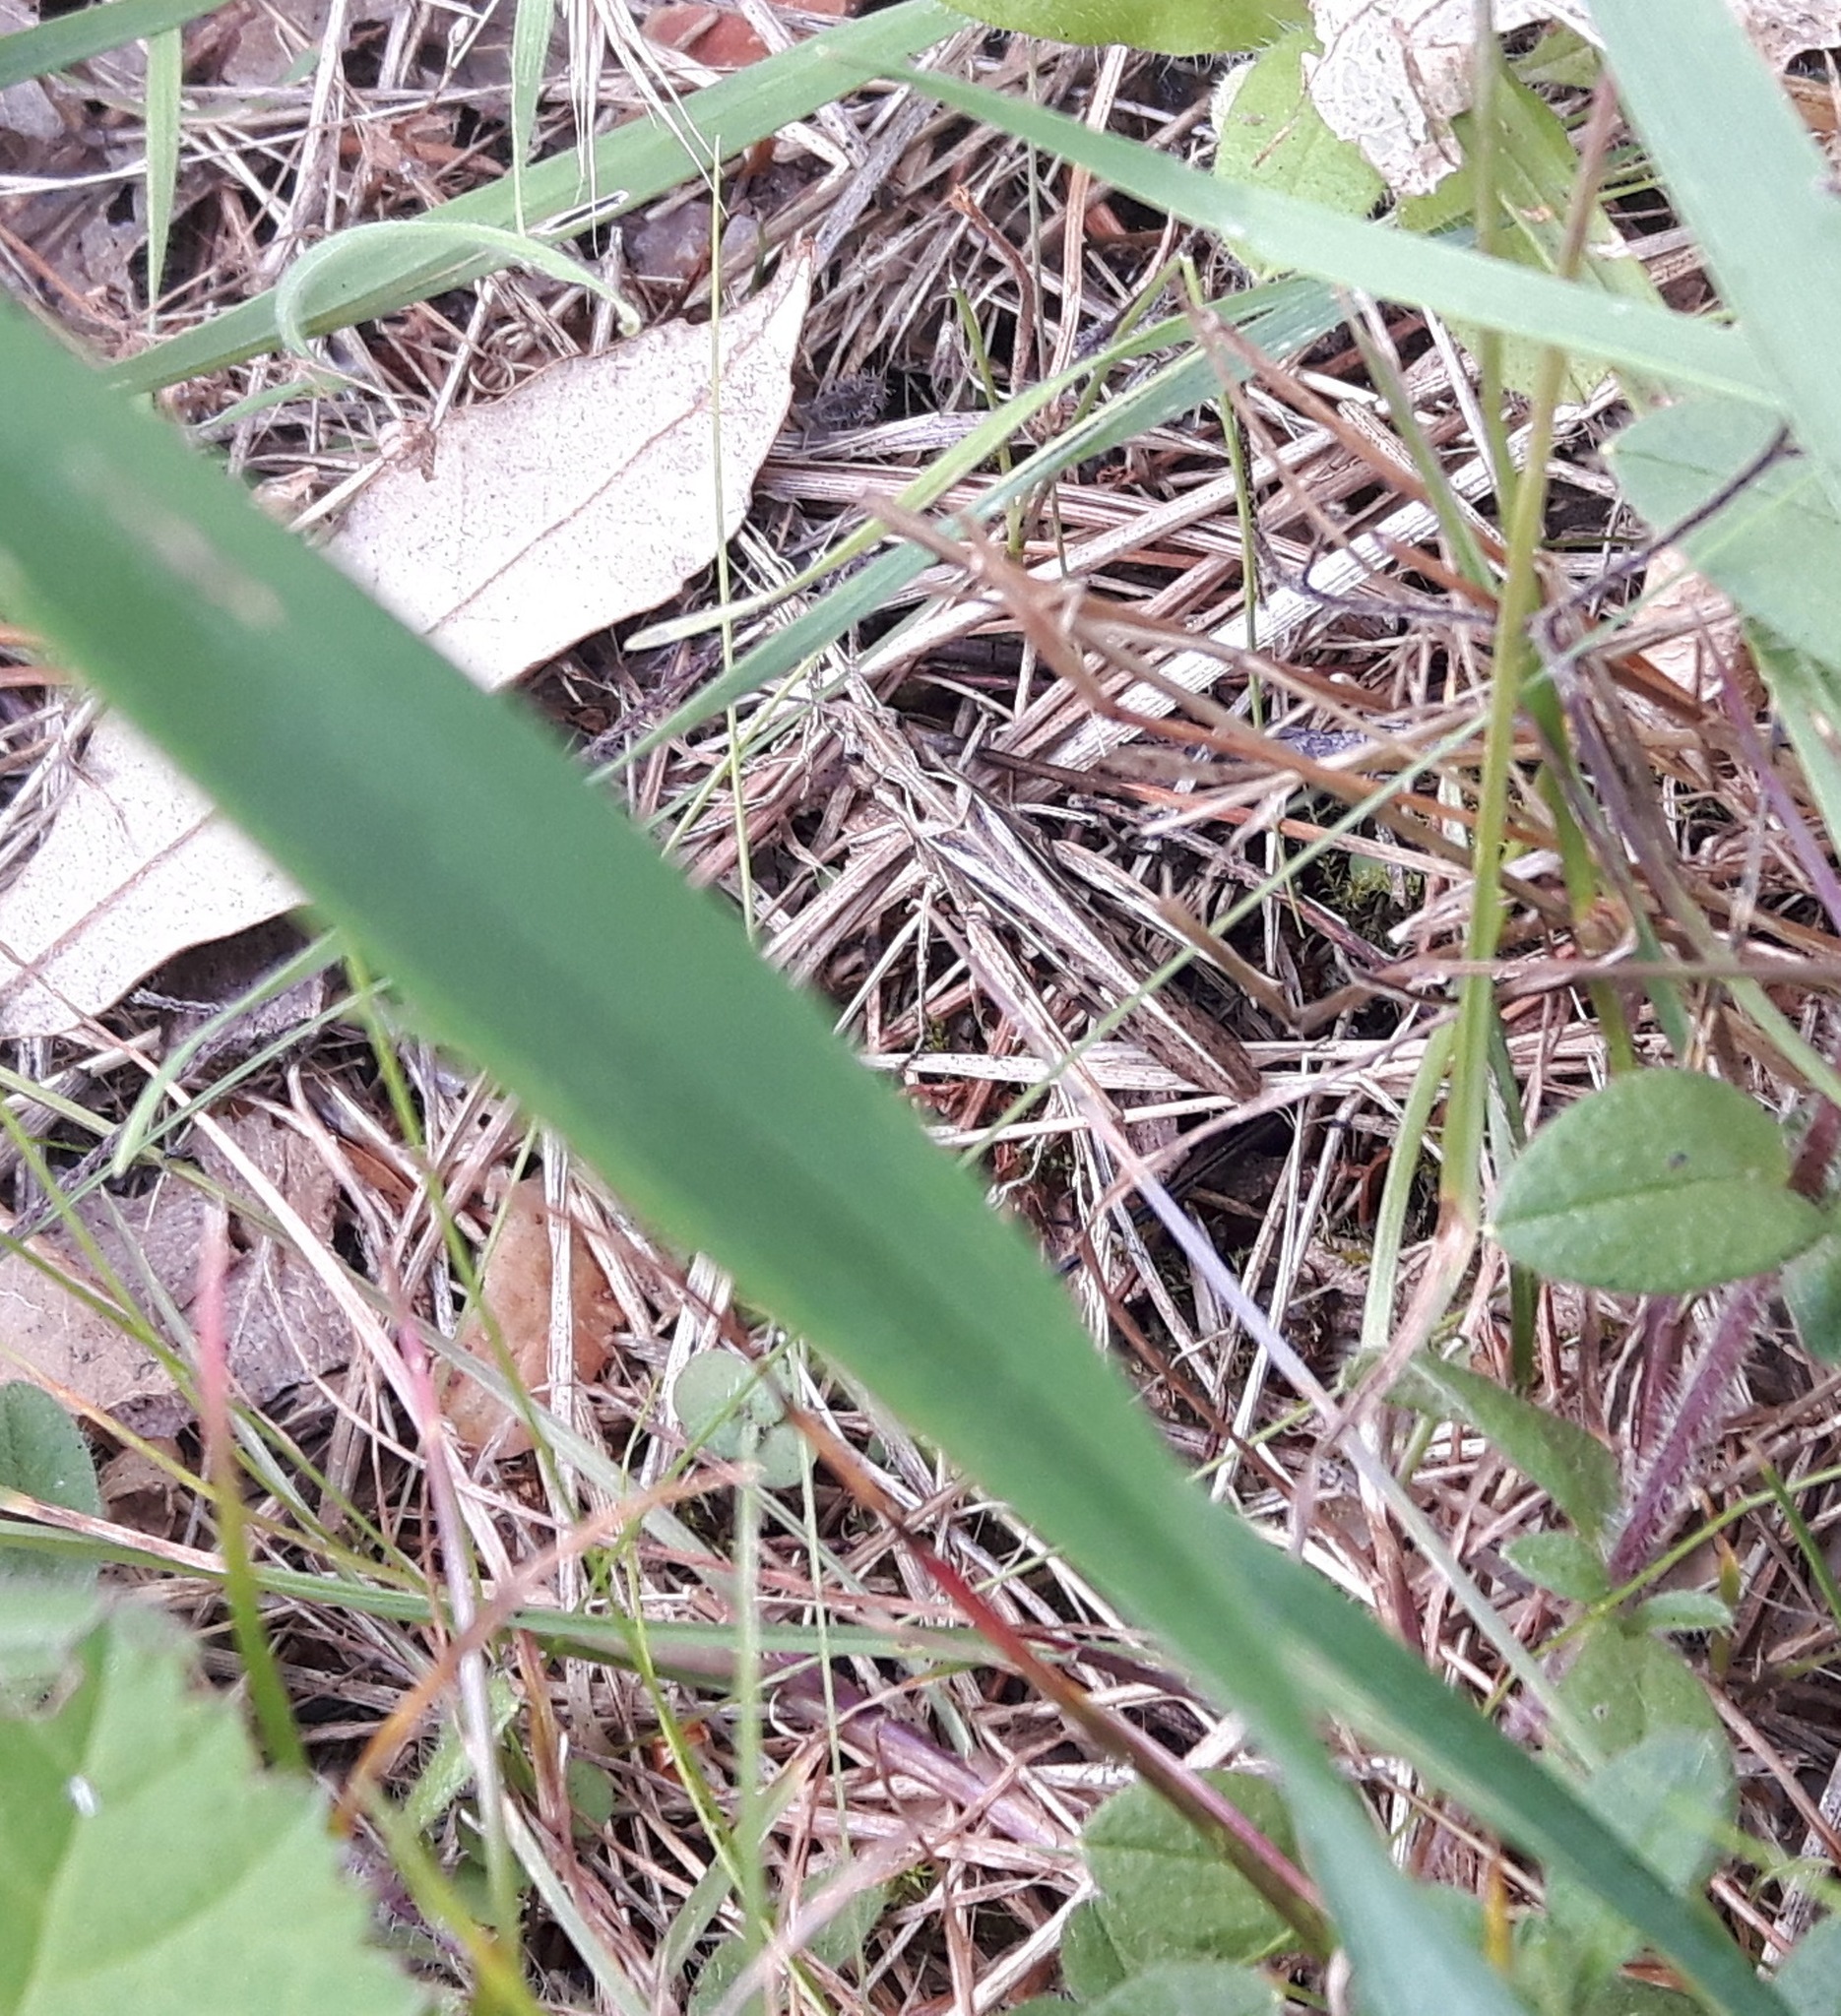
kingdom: Animalia
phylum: Arthropoda
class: Insecta
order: Orthoptera
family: Acrididae
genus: Chorthippus
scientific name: Chorthippus brunneus
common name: Field grasshopper
